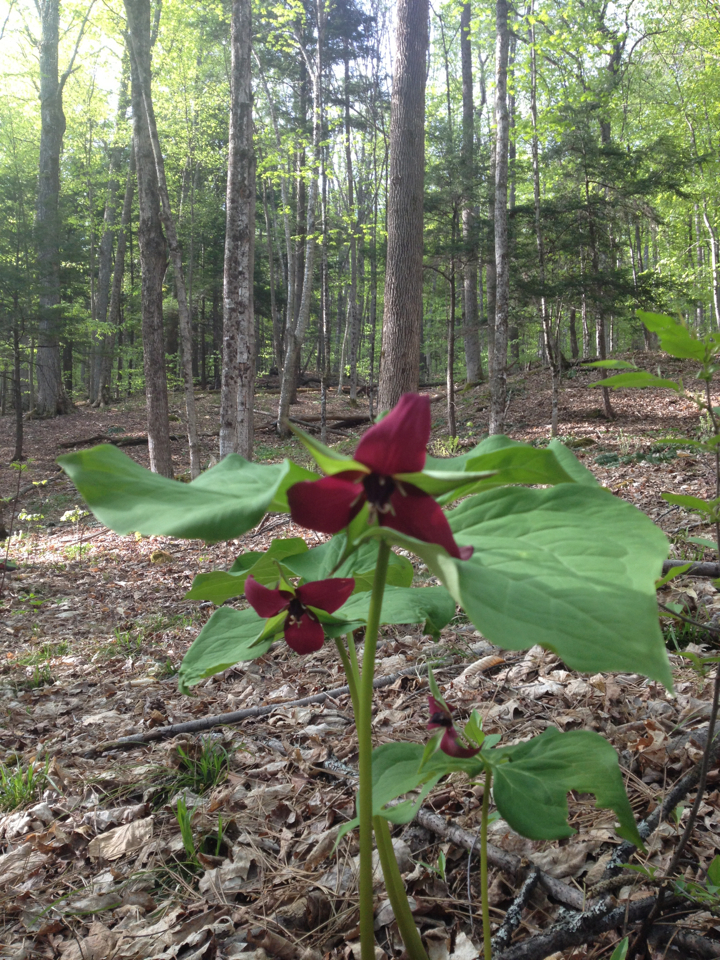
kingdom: Plantae
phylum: Tracheophyta
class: Liliopsida
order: Liliales
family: Melanthiaceae
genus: Trillium
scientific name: Trillium erectum
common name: Purple trillium
